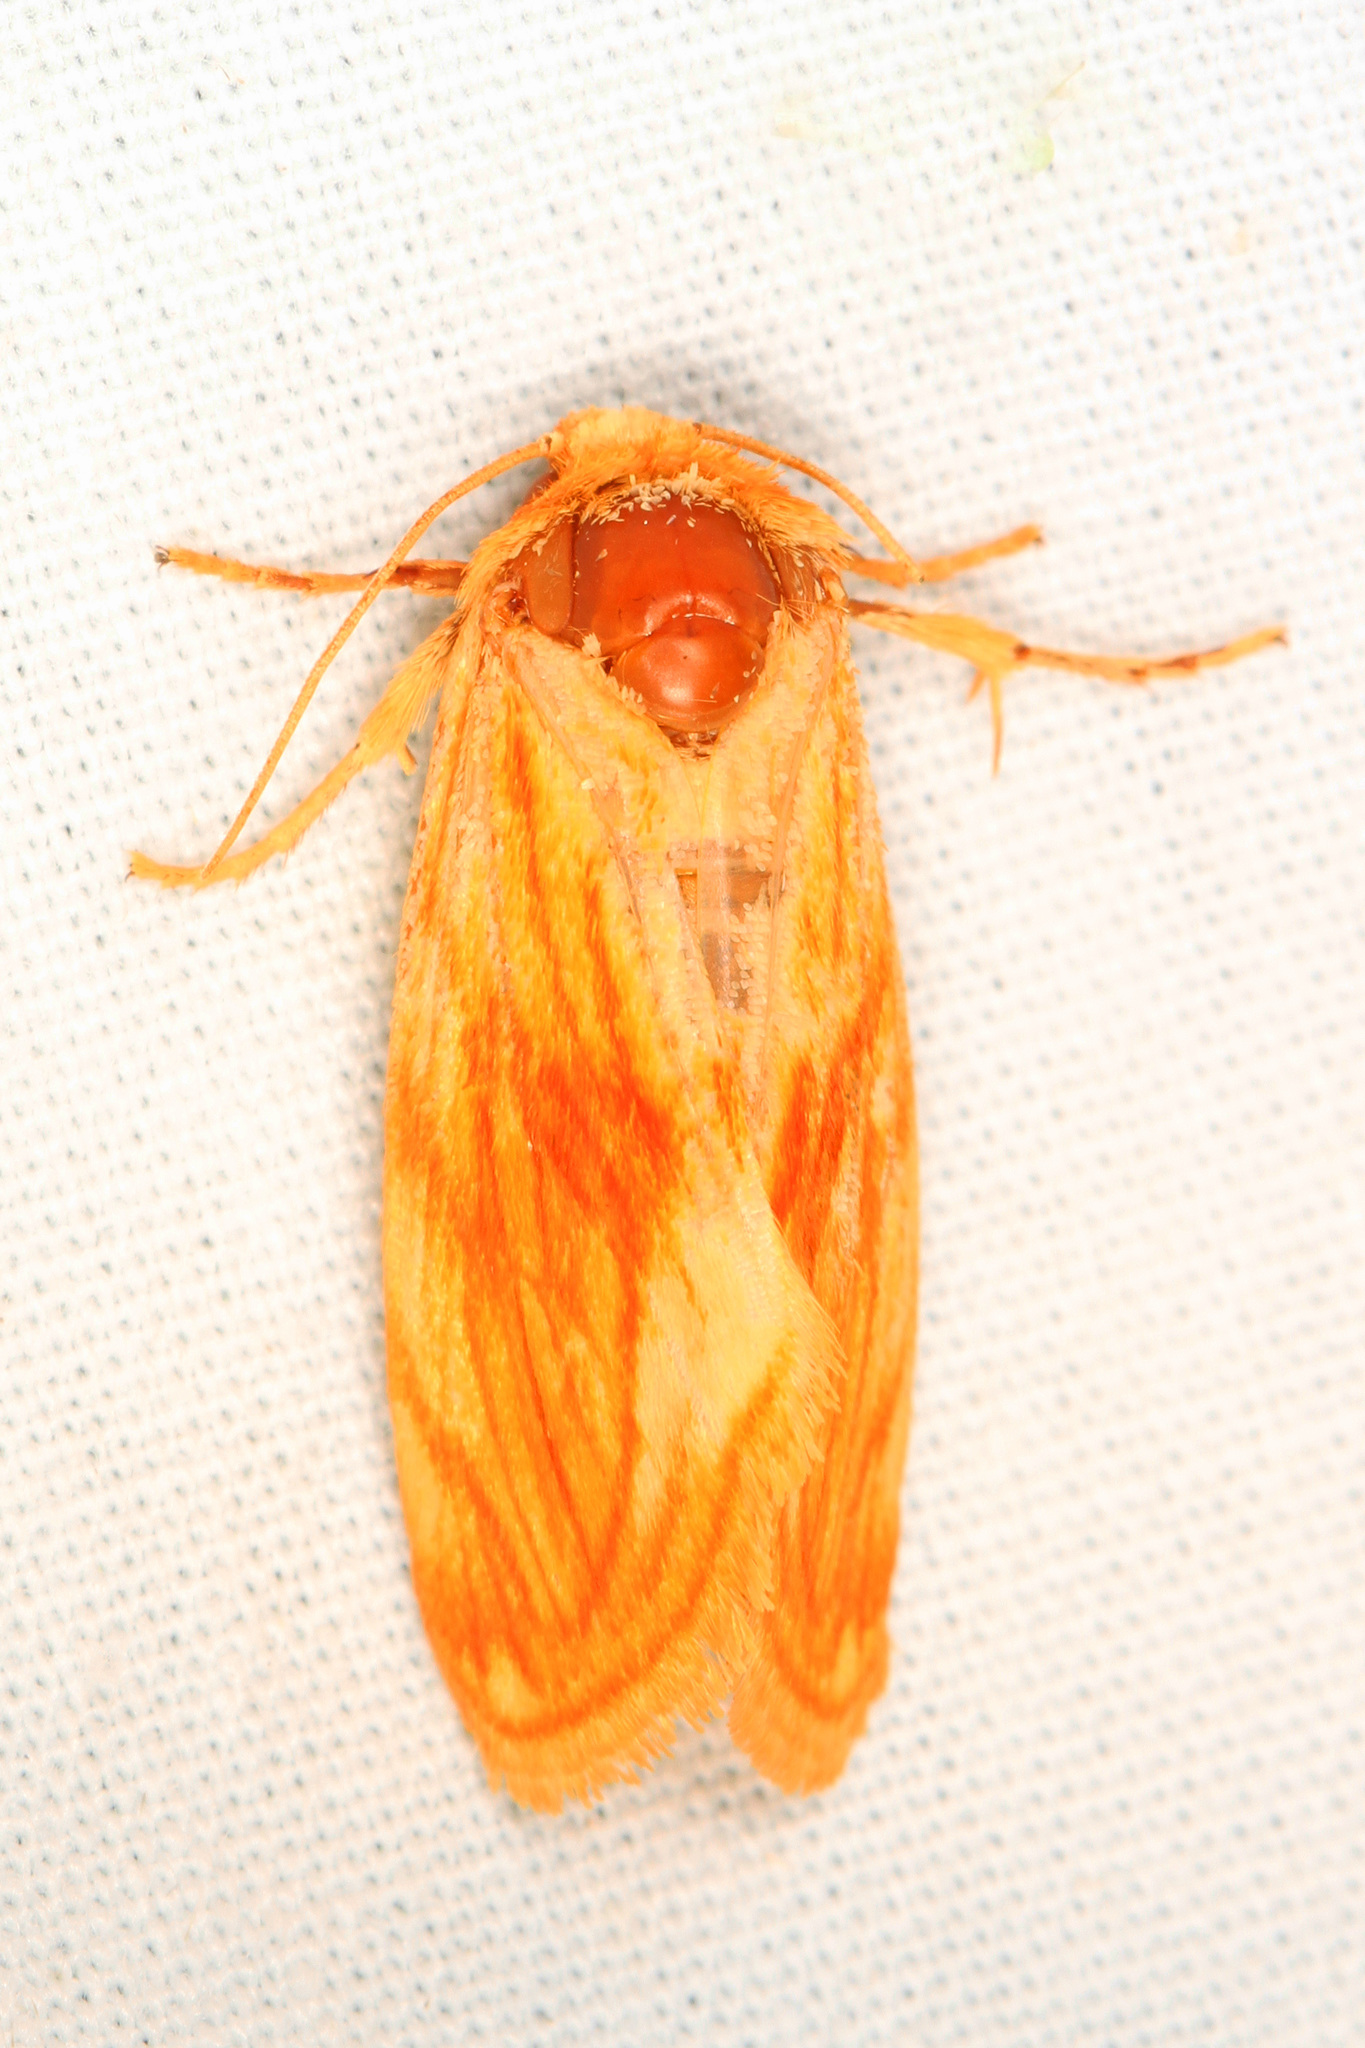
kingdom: Animalia
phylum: Arthropoda
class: Insecta
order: Lepidoptera
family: Noctuidae
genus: Cirrhophanus
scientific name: Cirrhophanus pretiosa
